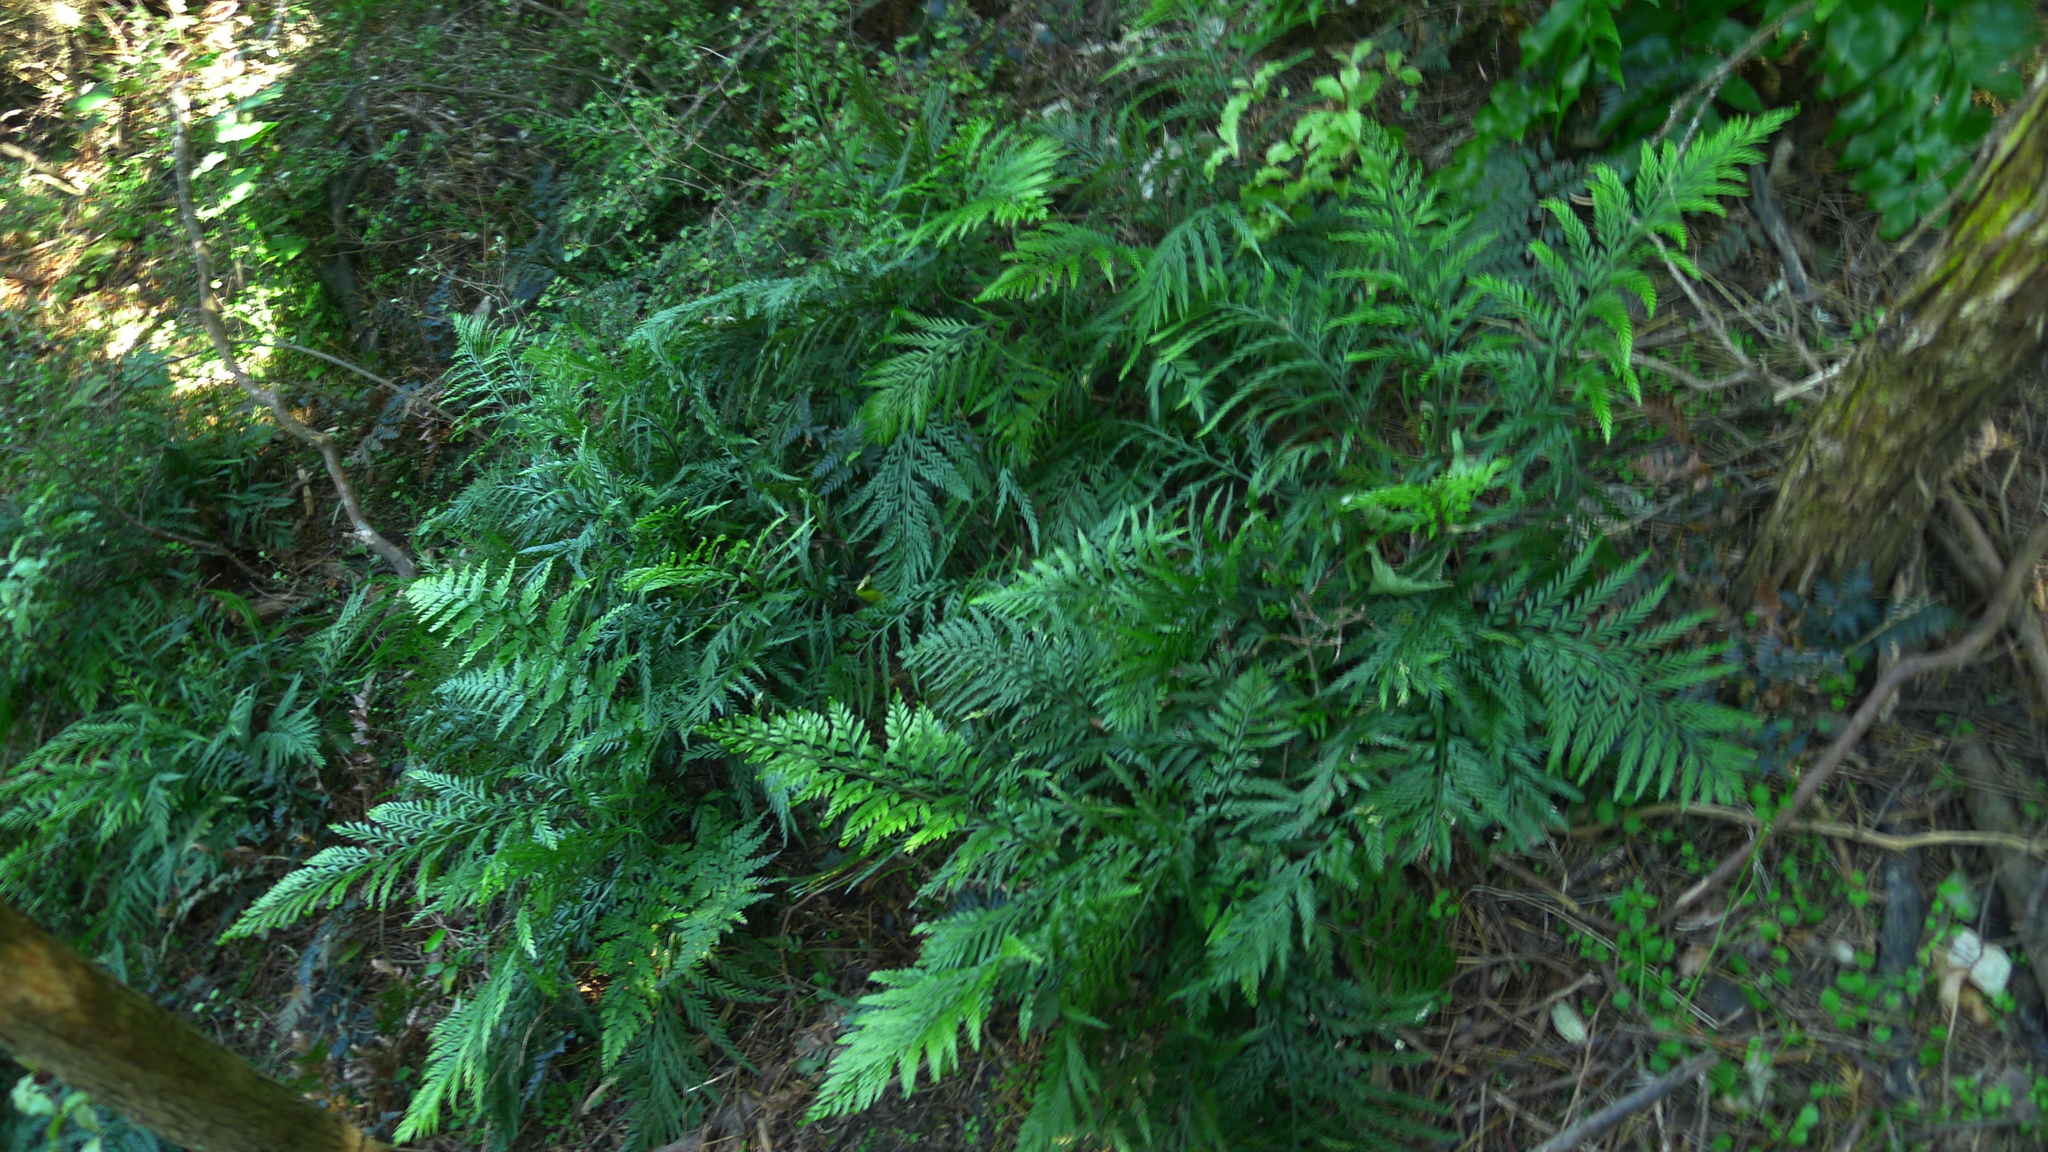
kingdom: Plantae
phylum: Tracheophyta
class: Polypodiopsida
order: Polypodiales
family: Aspleniaceae
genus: Asplenium
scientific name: Asplenium appendiculatum
